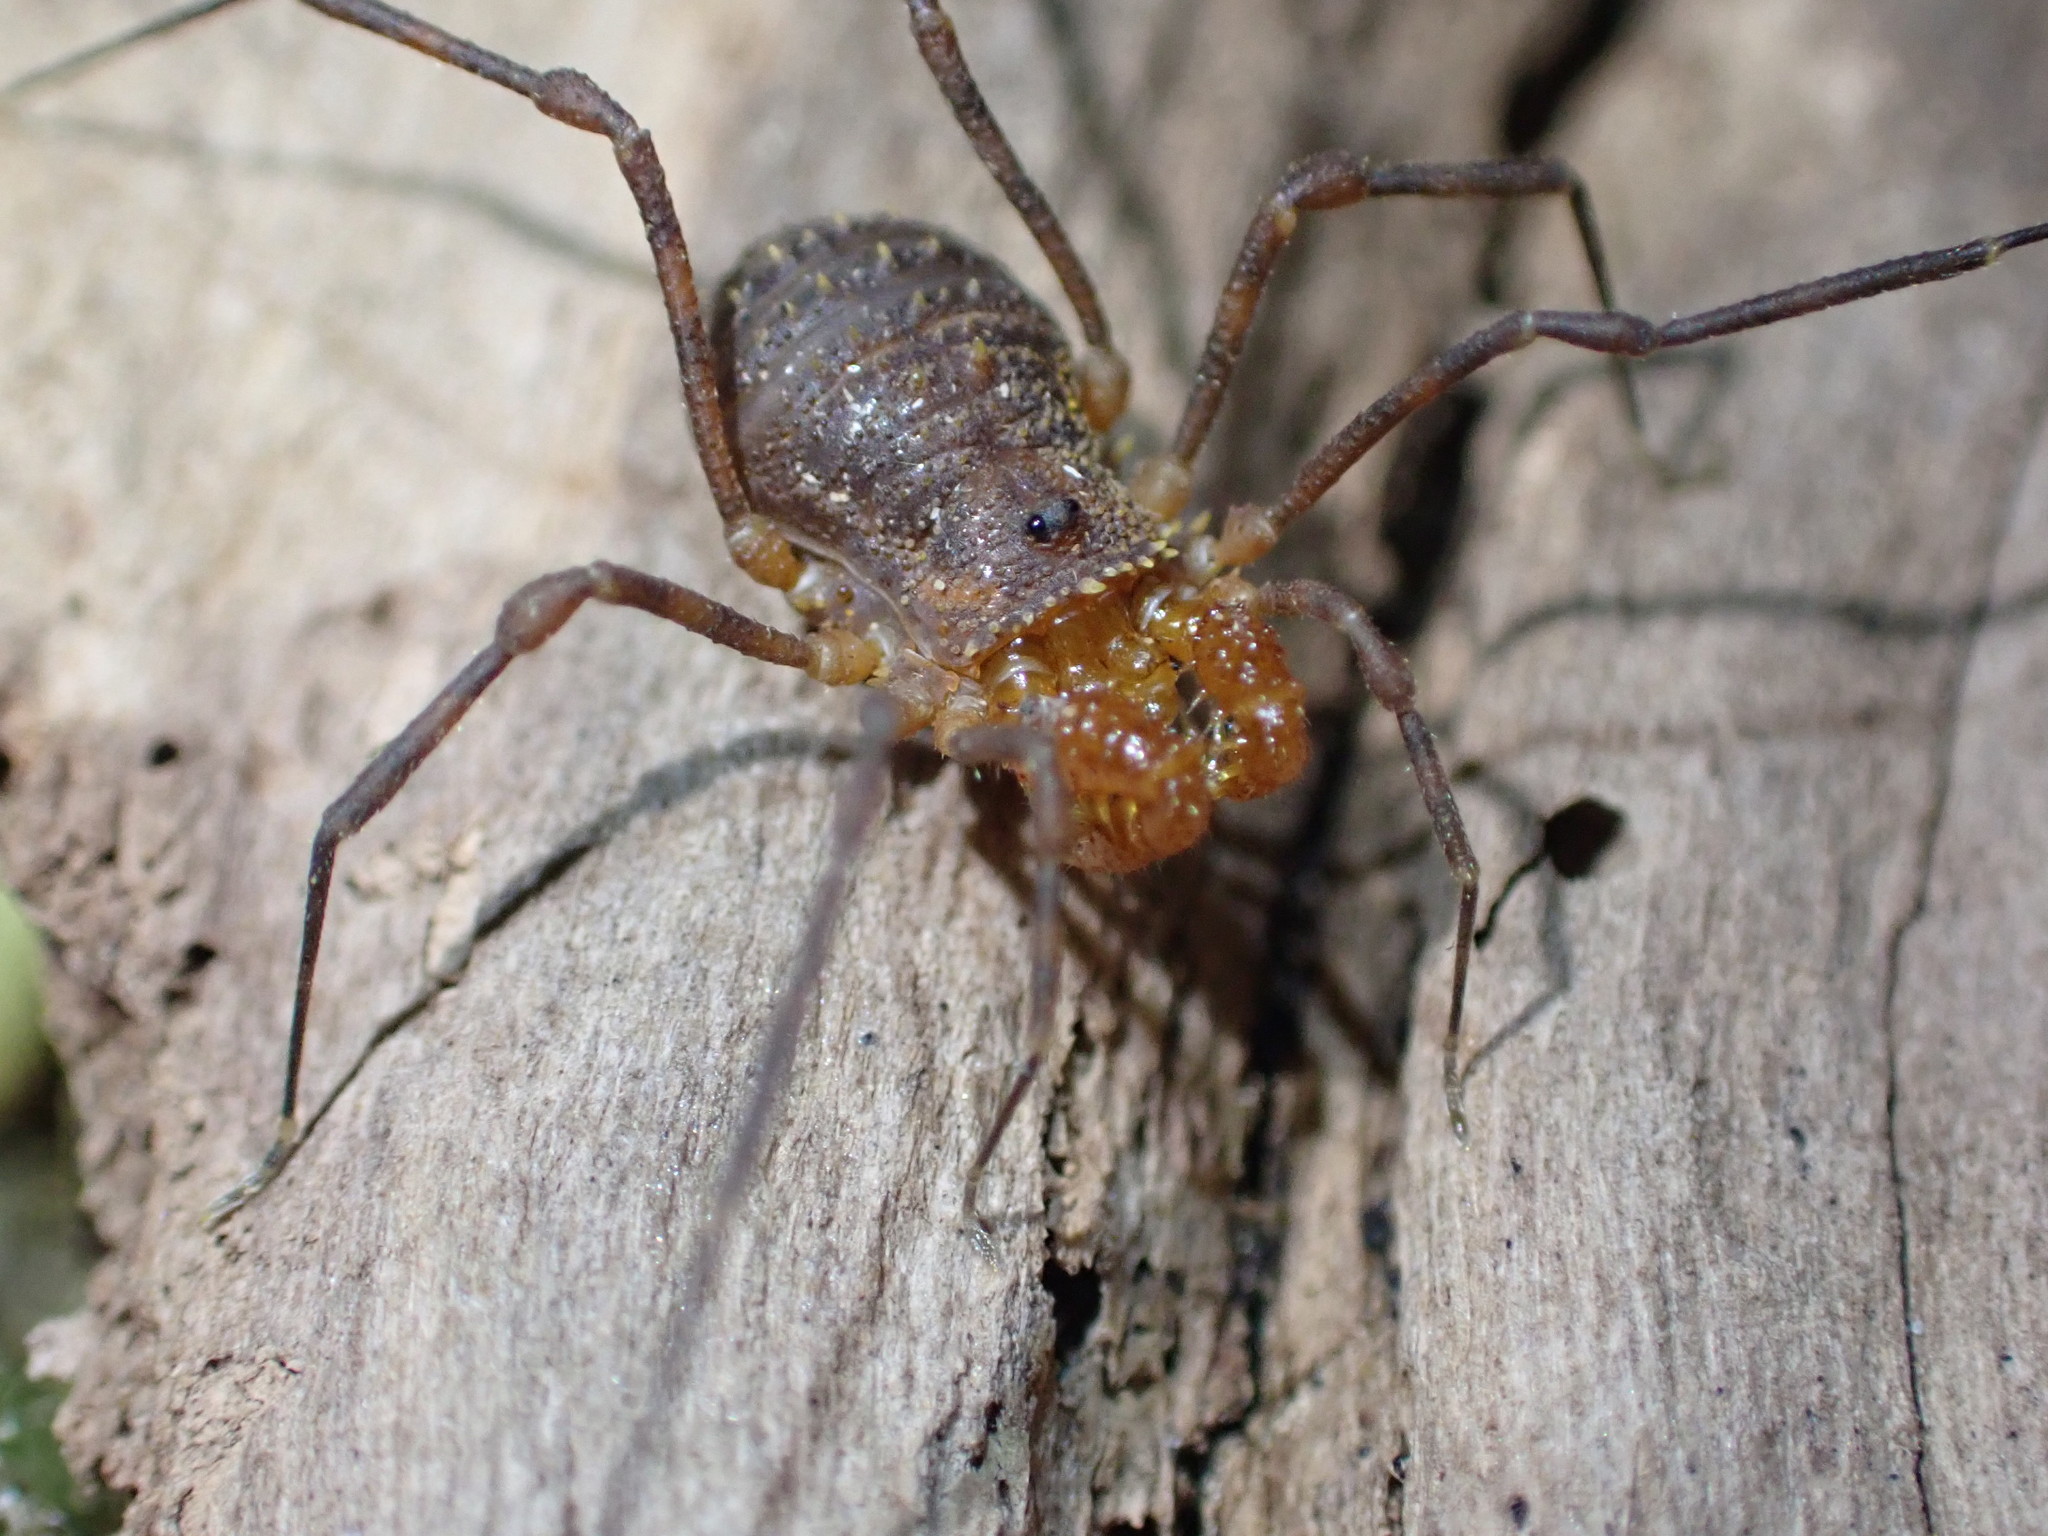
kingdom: Animalia
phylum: Arthropoda
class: Arachnida
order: Opiliones
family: Triaenonychidae
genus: Prasma
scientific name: Prasma tuberculata
